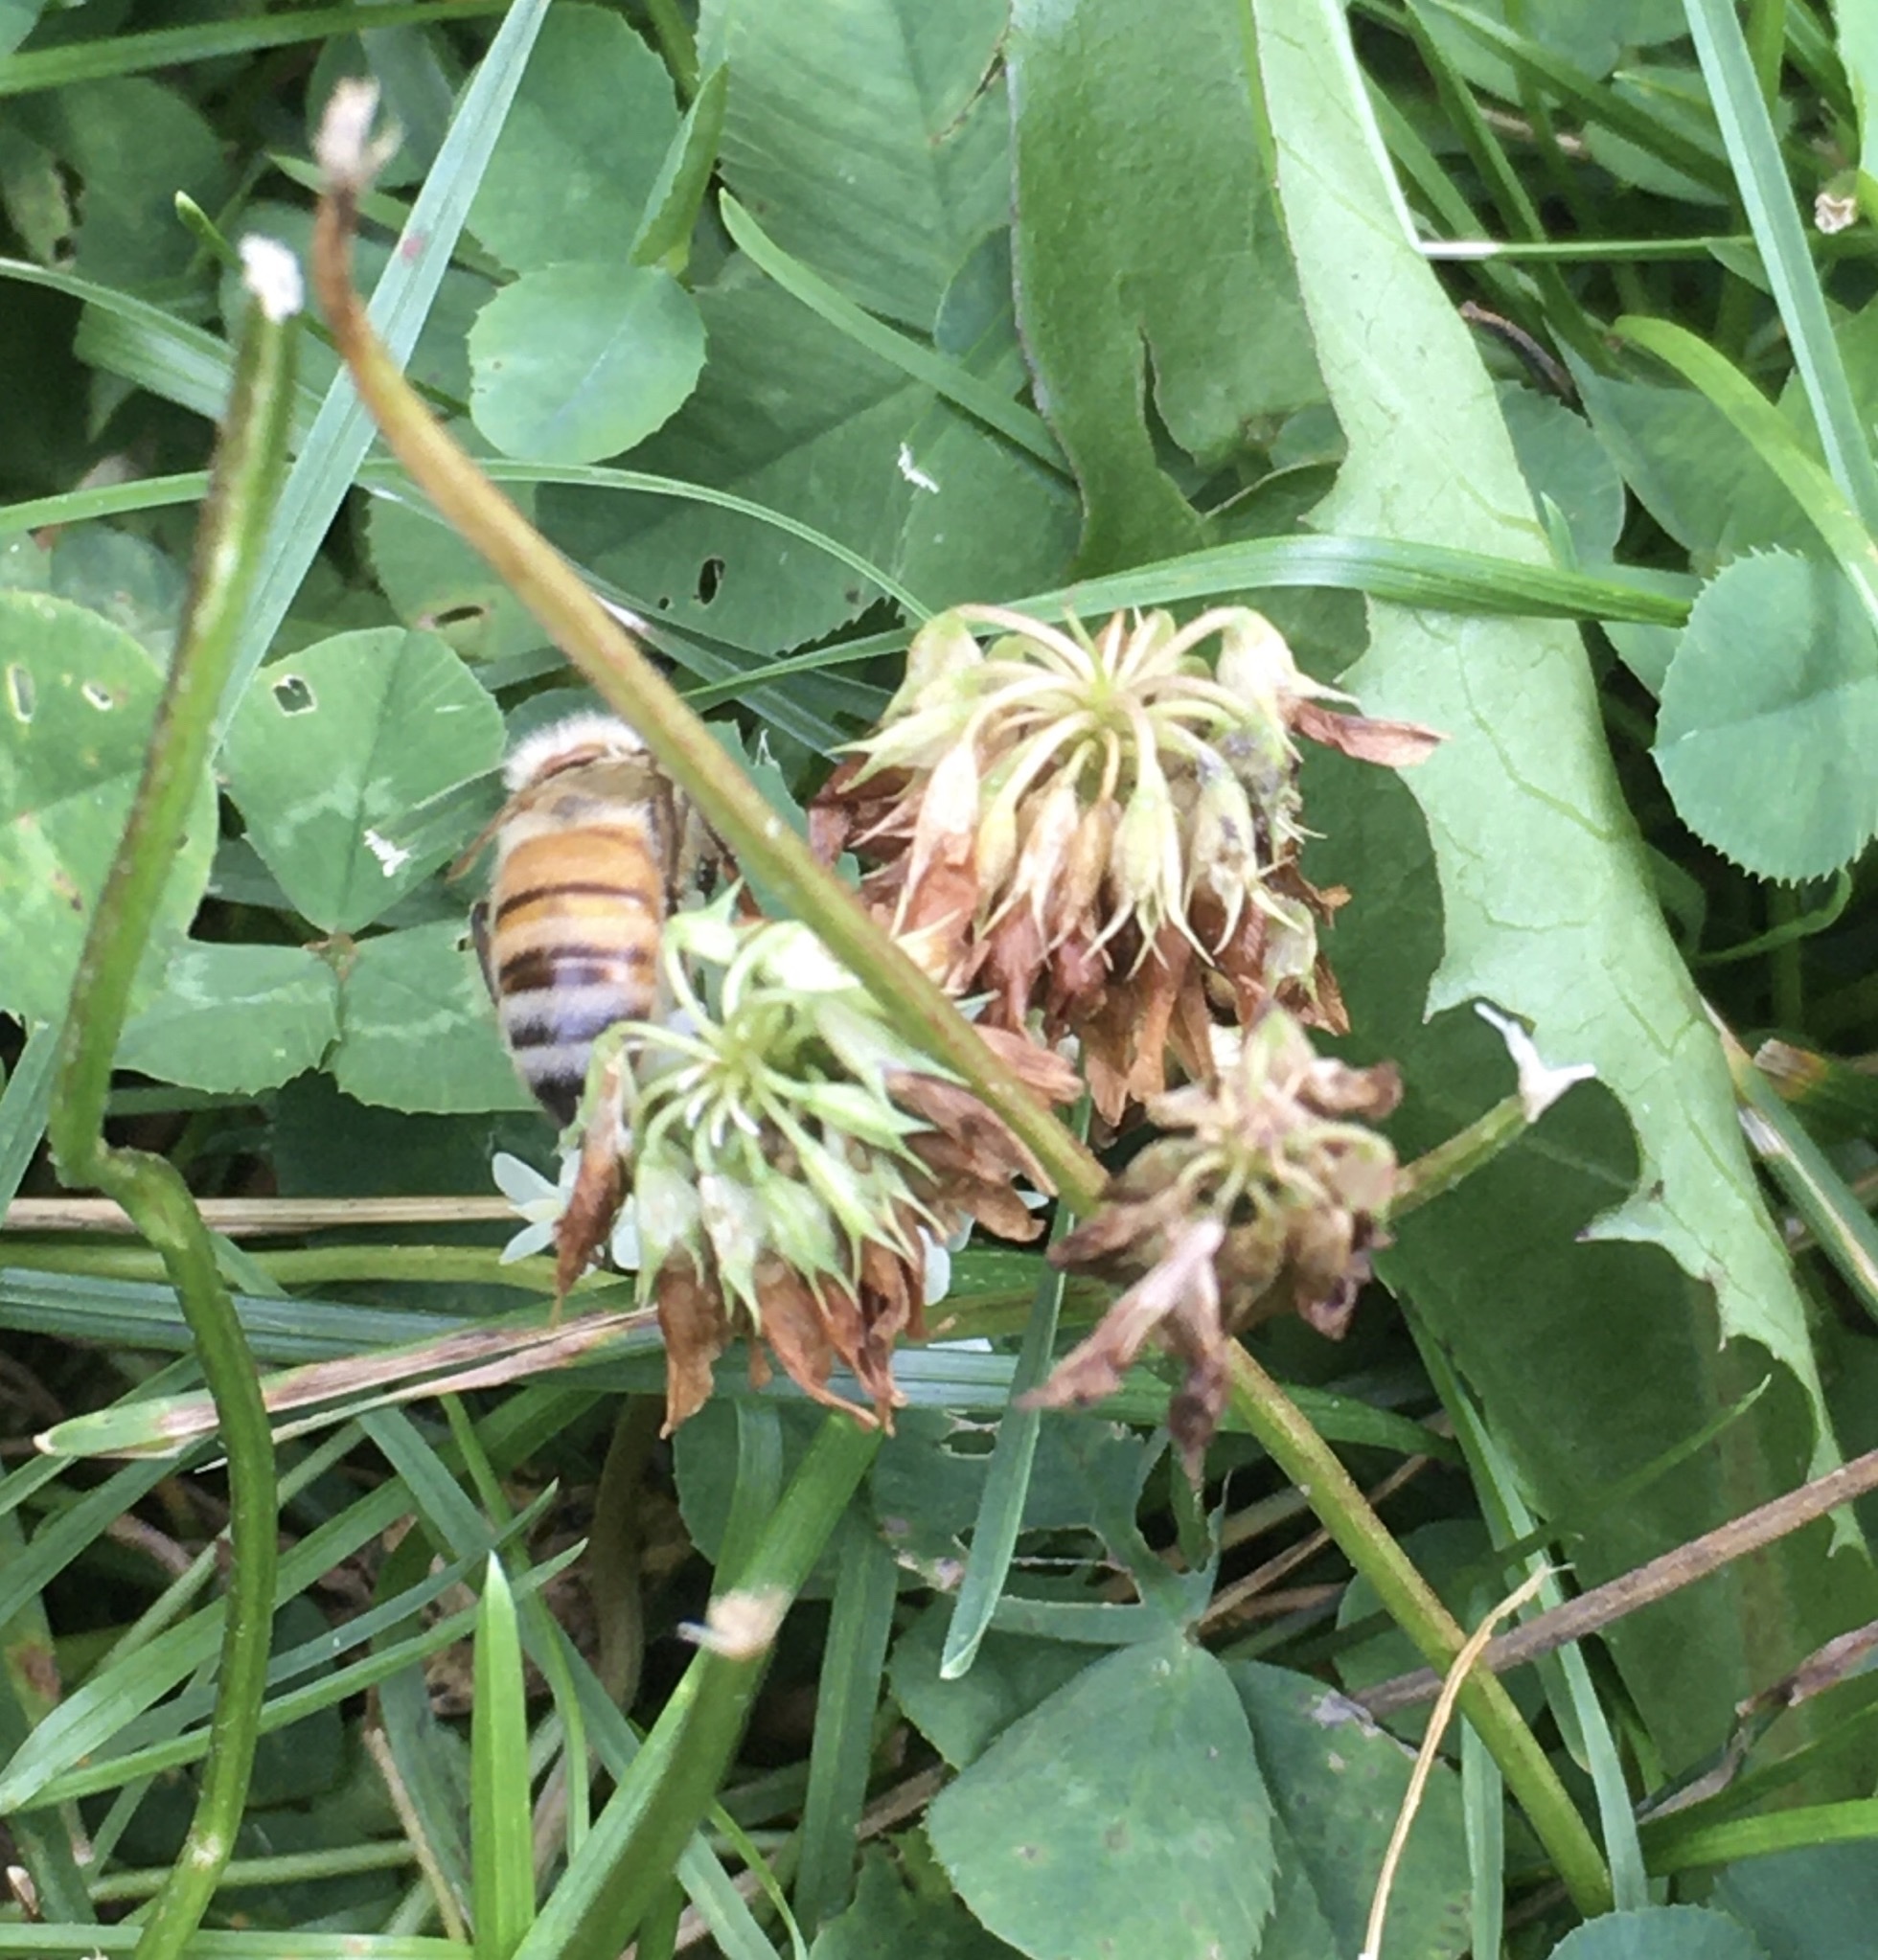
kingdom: Animalia
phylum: Arthropoda
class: Insecta
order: Hymenoptera
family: Apidae
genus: Apis
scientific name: Apis mellifera
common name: Honey bee
